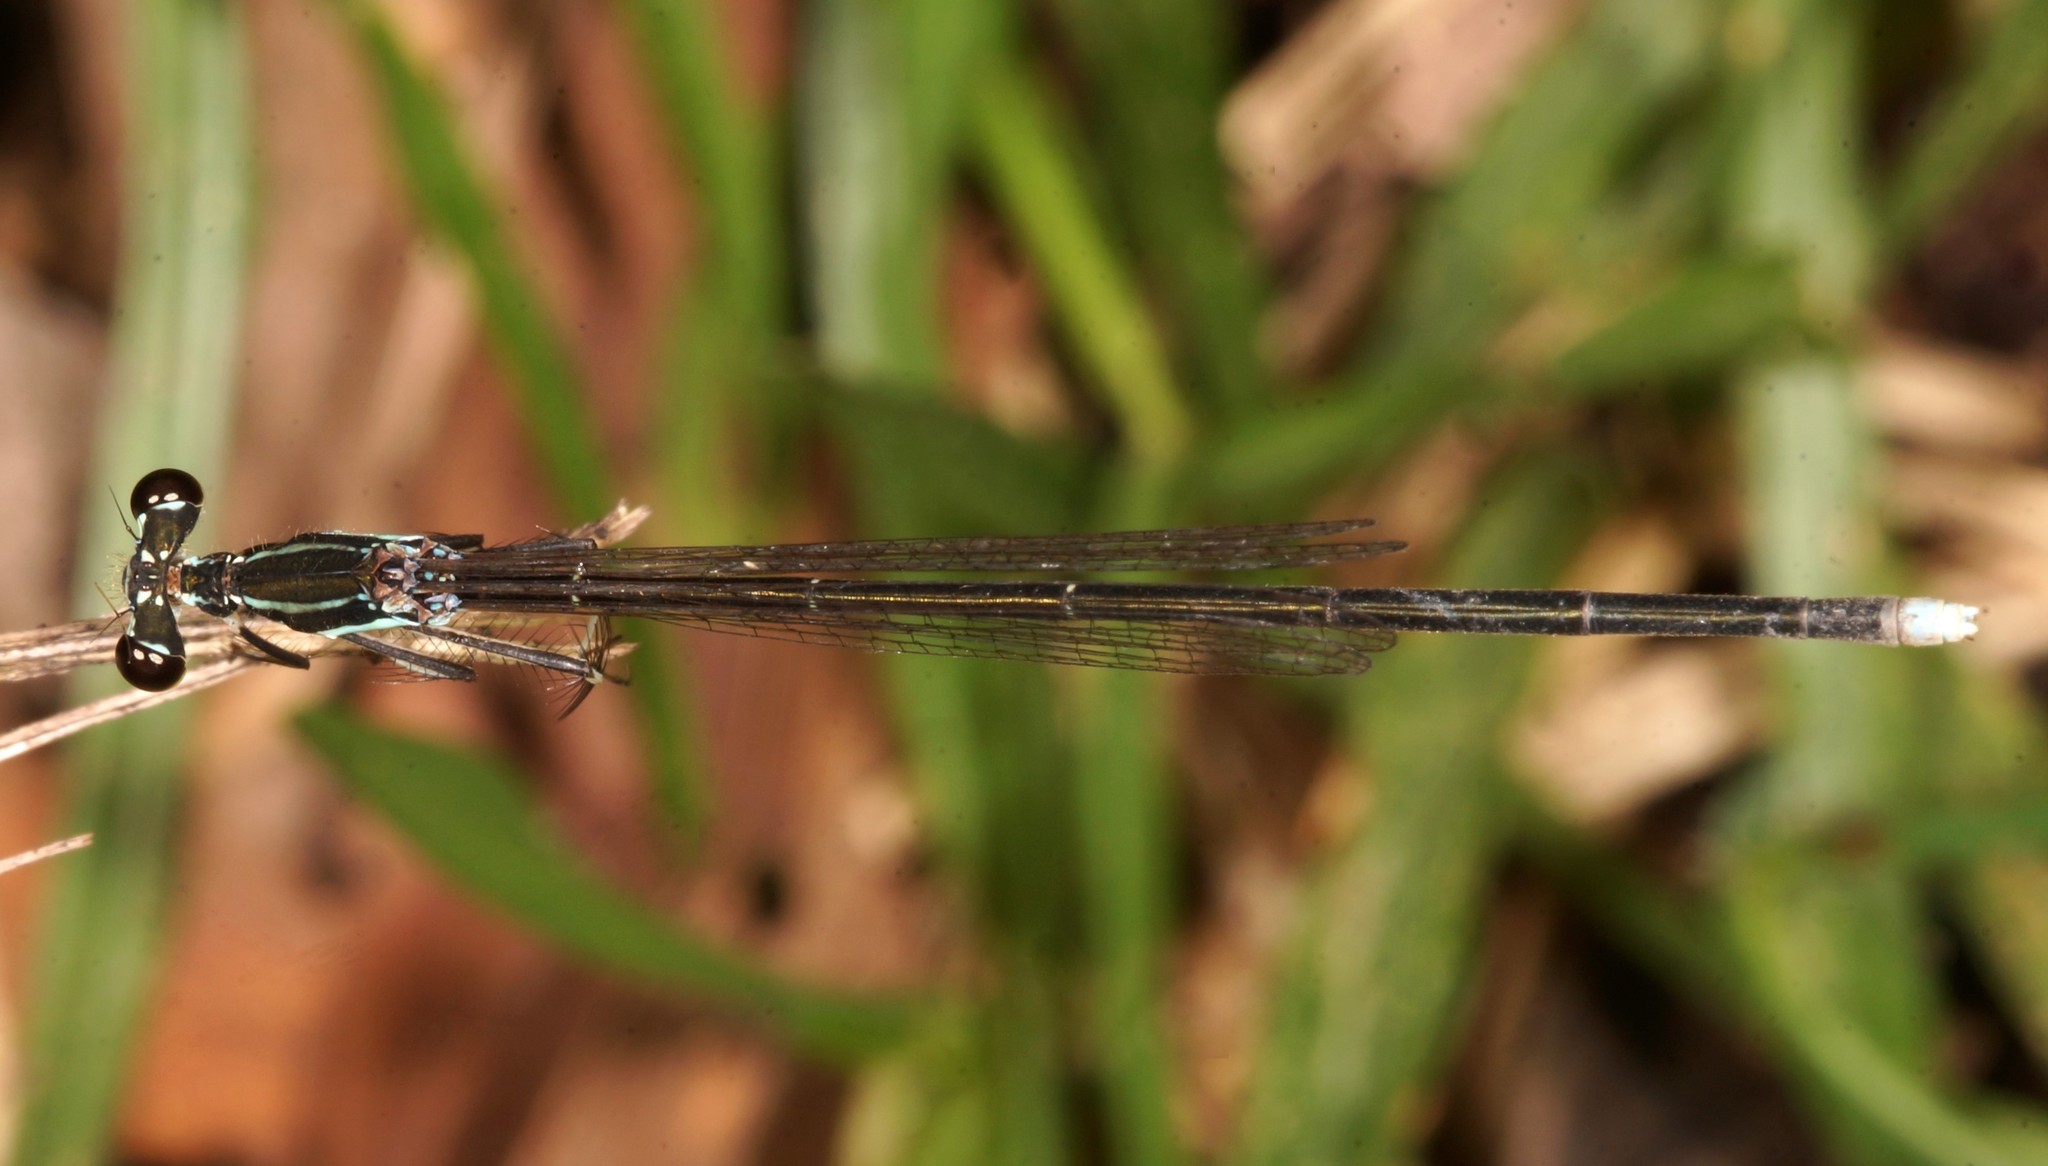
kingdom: Animalia
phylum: Arthropoda
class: Insecta
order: Odonata
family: Platycnemididae
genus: Pseudocopera
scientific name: Pseudocopera ciliata
